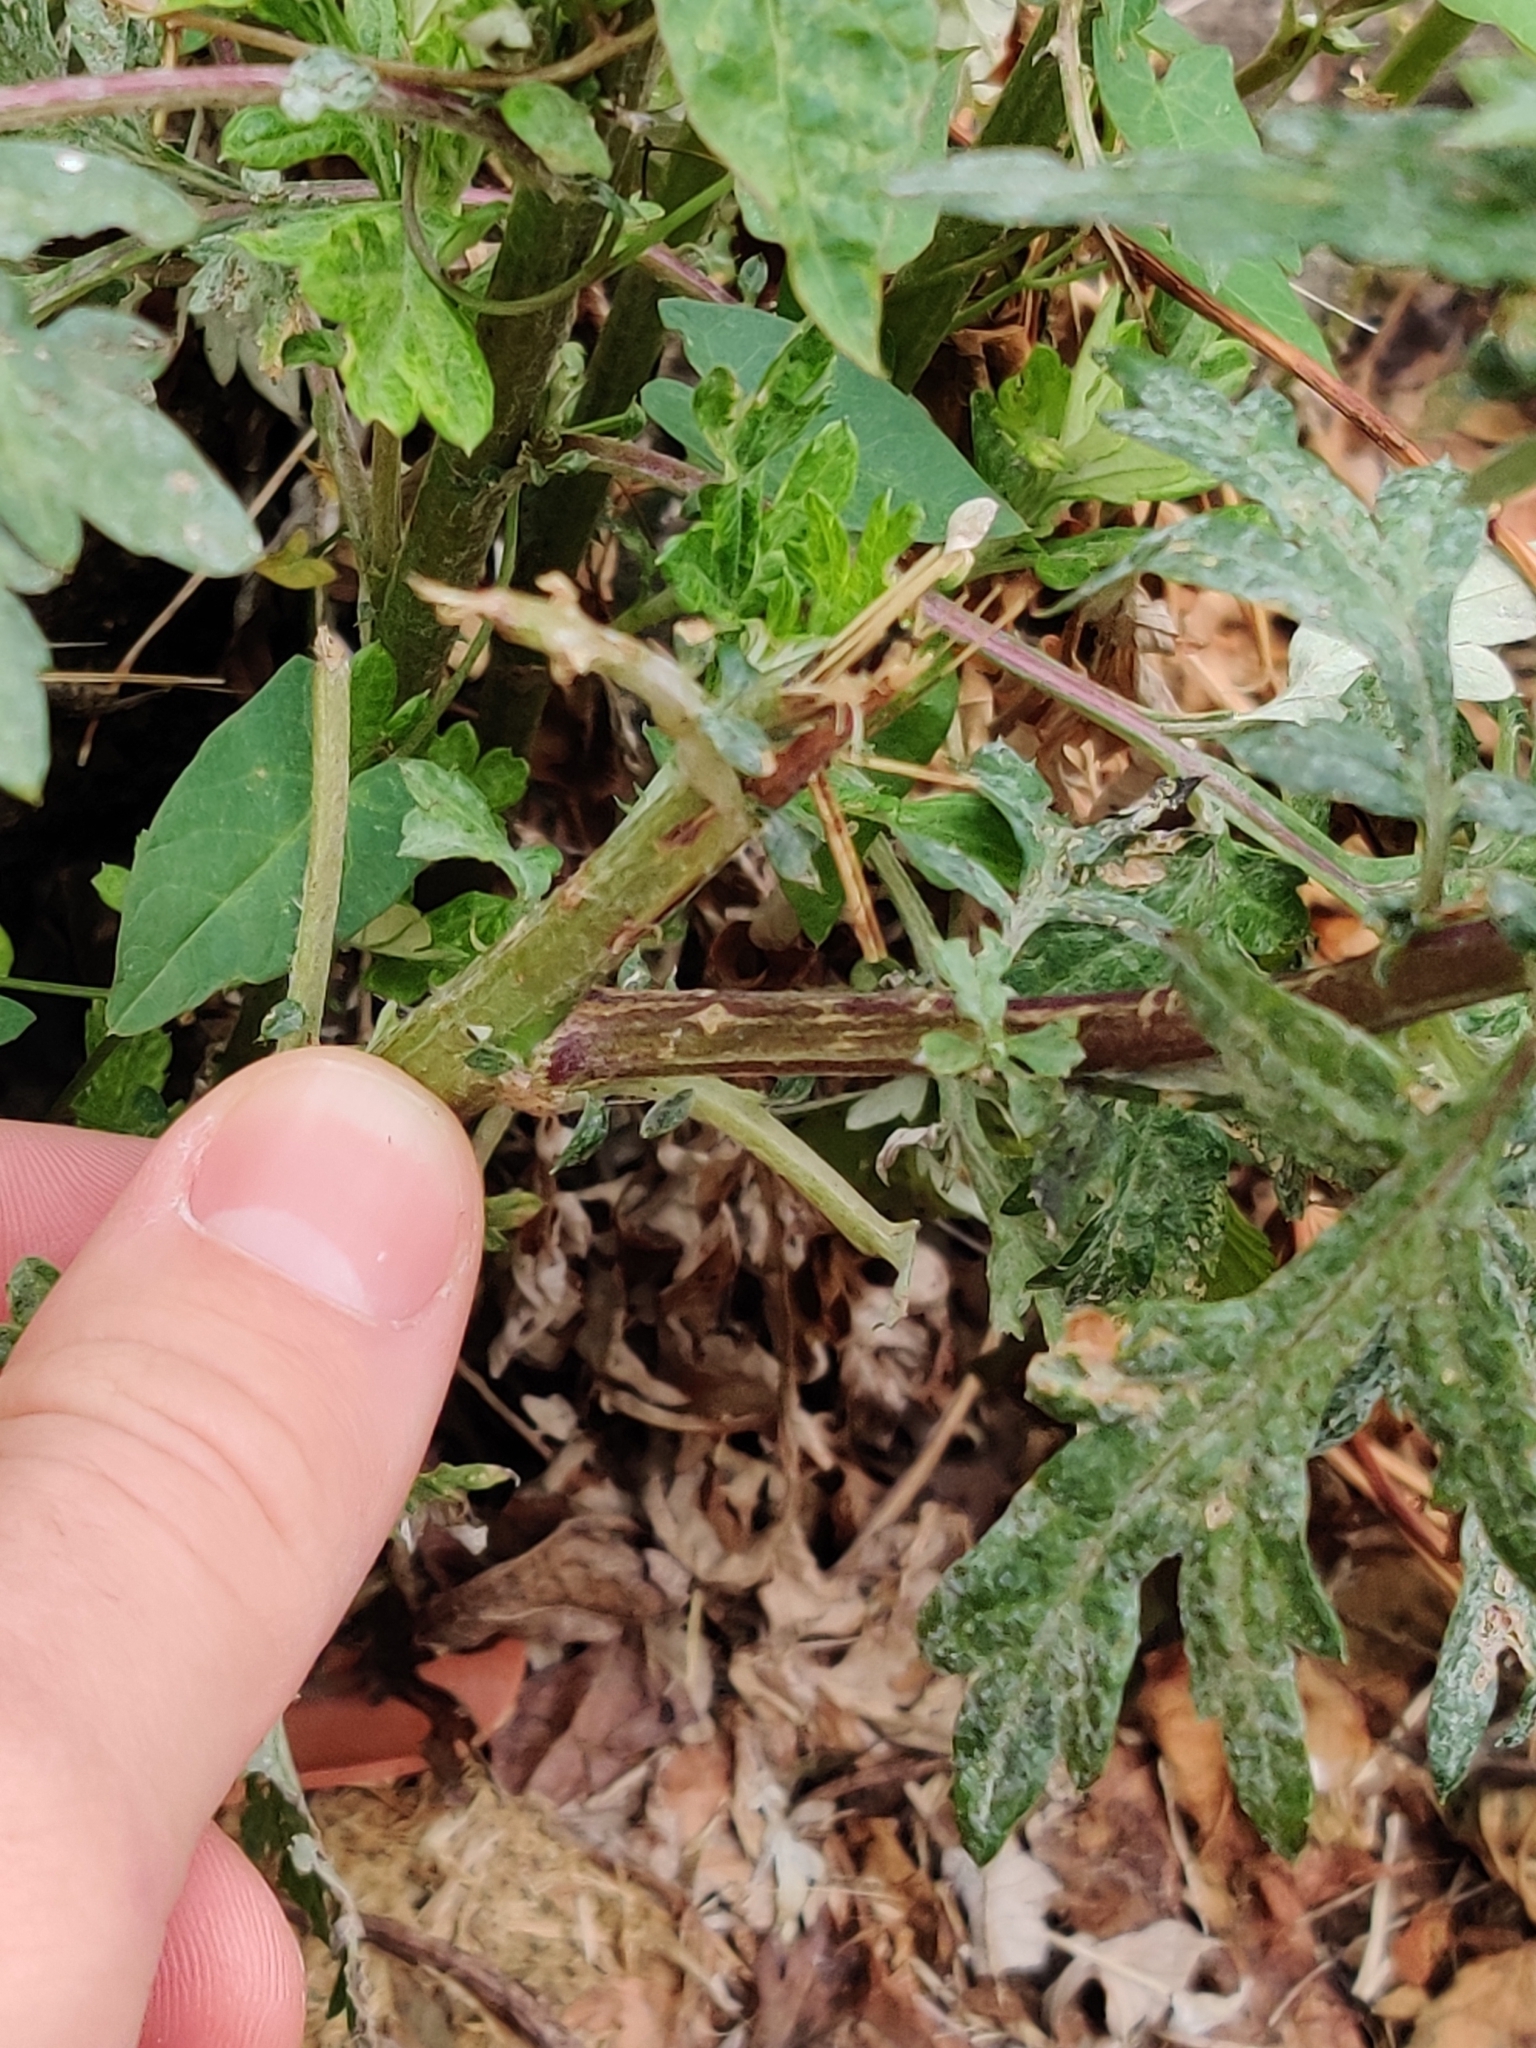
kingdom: Plantae
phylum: Tracheophyta
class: Magnoliopsida
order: Asterales
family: Asteraceae
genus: Artemisia
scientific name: Artemisia vulgaris
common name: Mugwort
